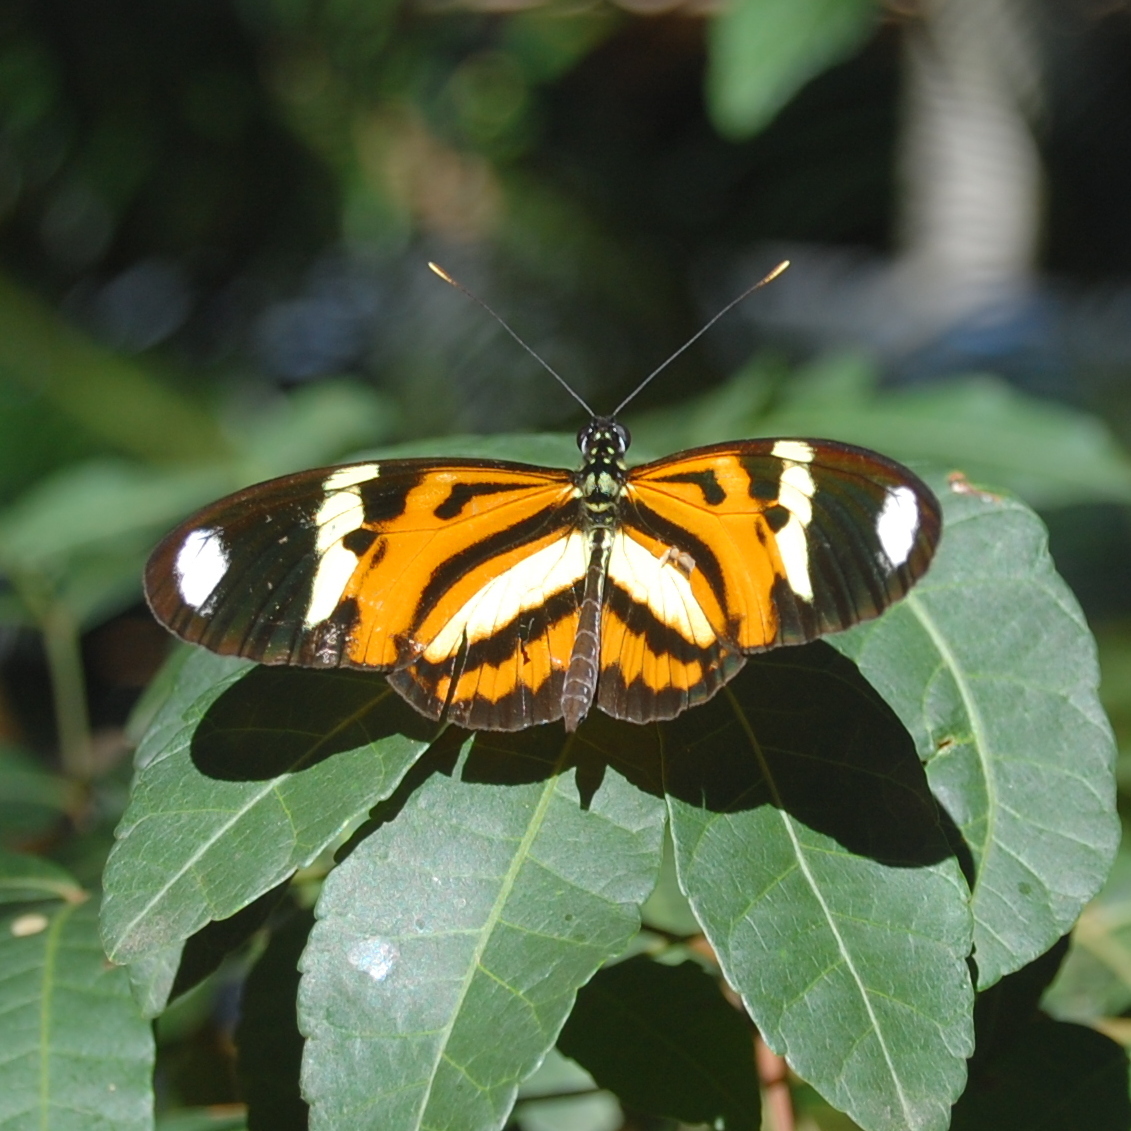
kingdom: Animalia
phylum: Arthropoda
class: Insecta
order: Lepidoptera
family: Nymphalidae
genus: Heliconius
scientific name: Heliconius ethilla
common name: Ethilia longwing
